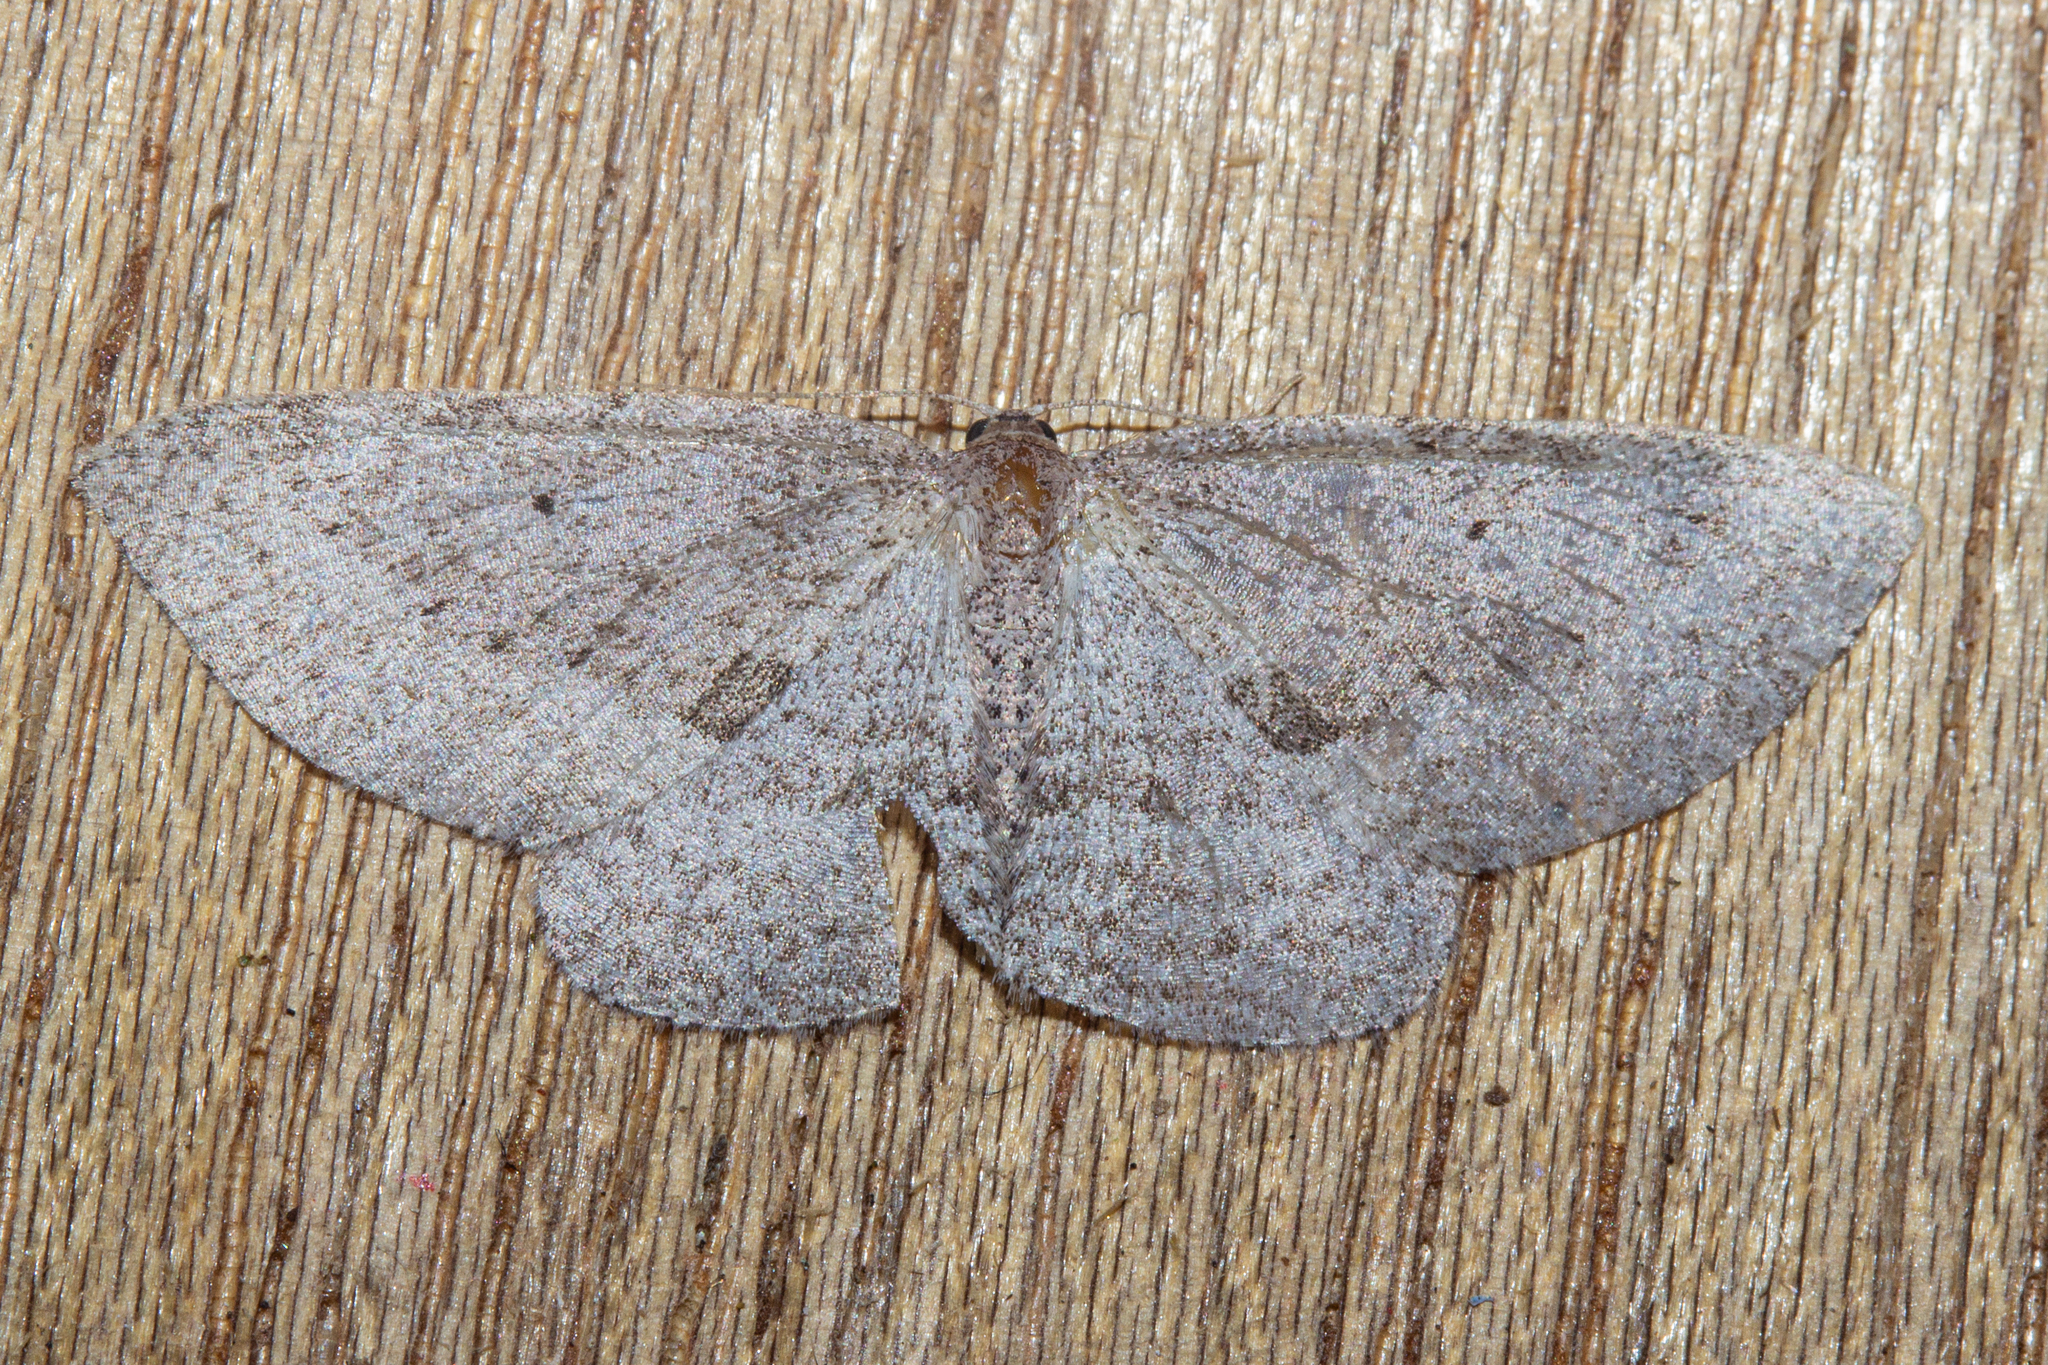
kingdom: Animalia
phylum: Arthropoda
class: Insecta
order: Lepidoptera
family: Geometridae
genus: Poecilasthena
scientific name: Poecilasthena schistaria
